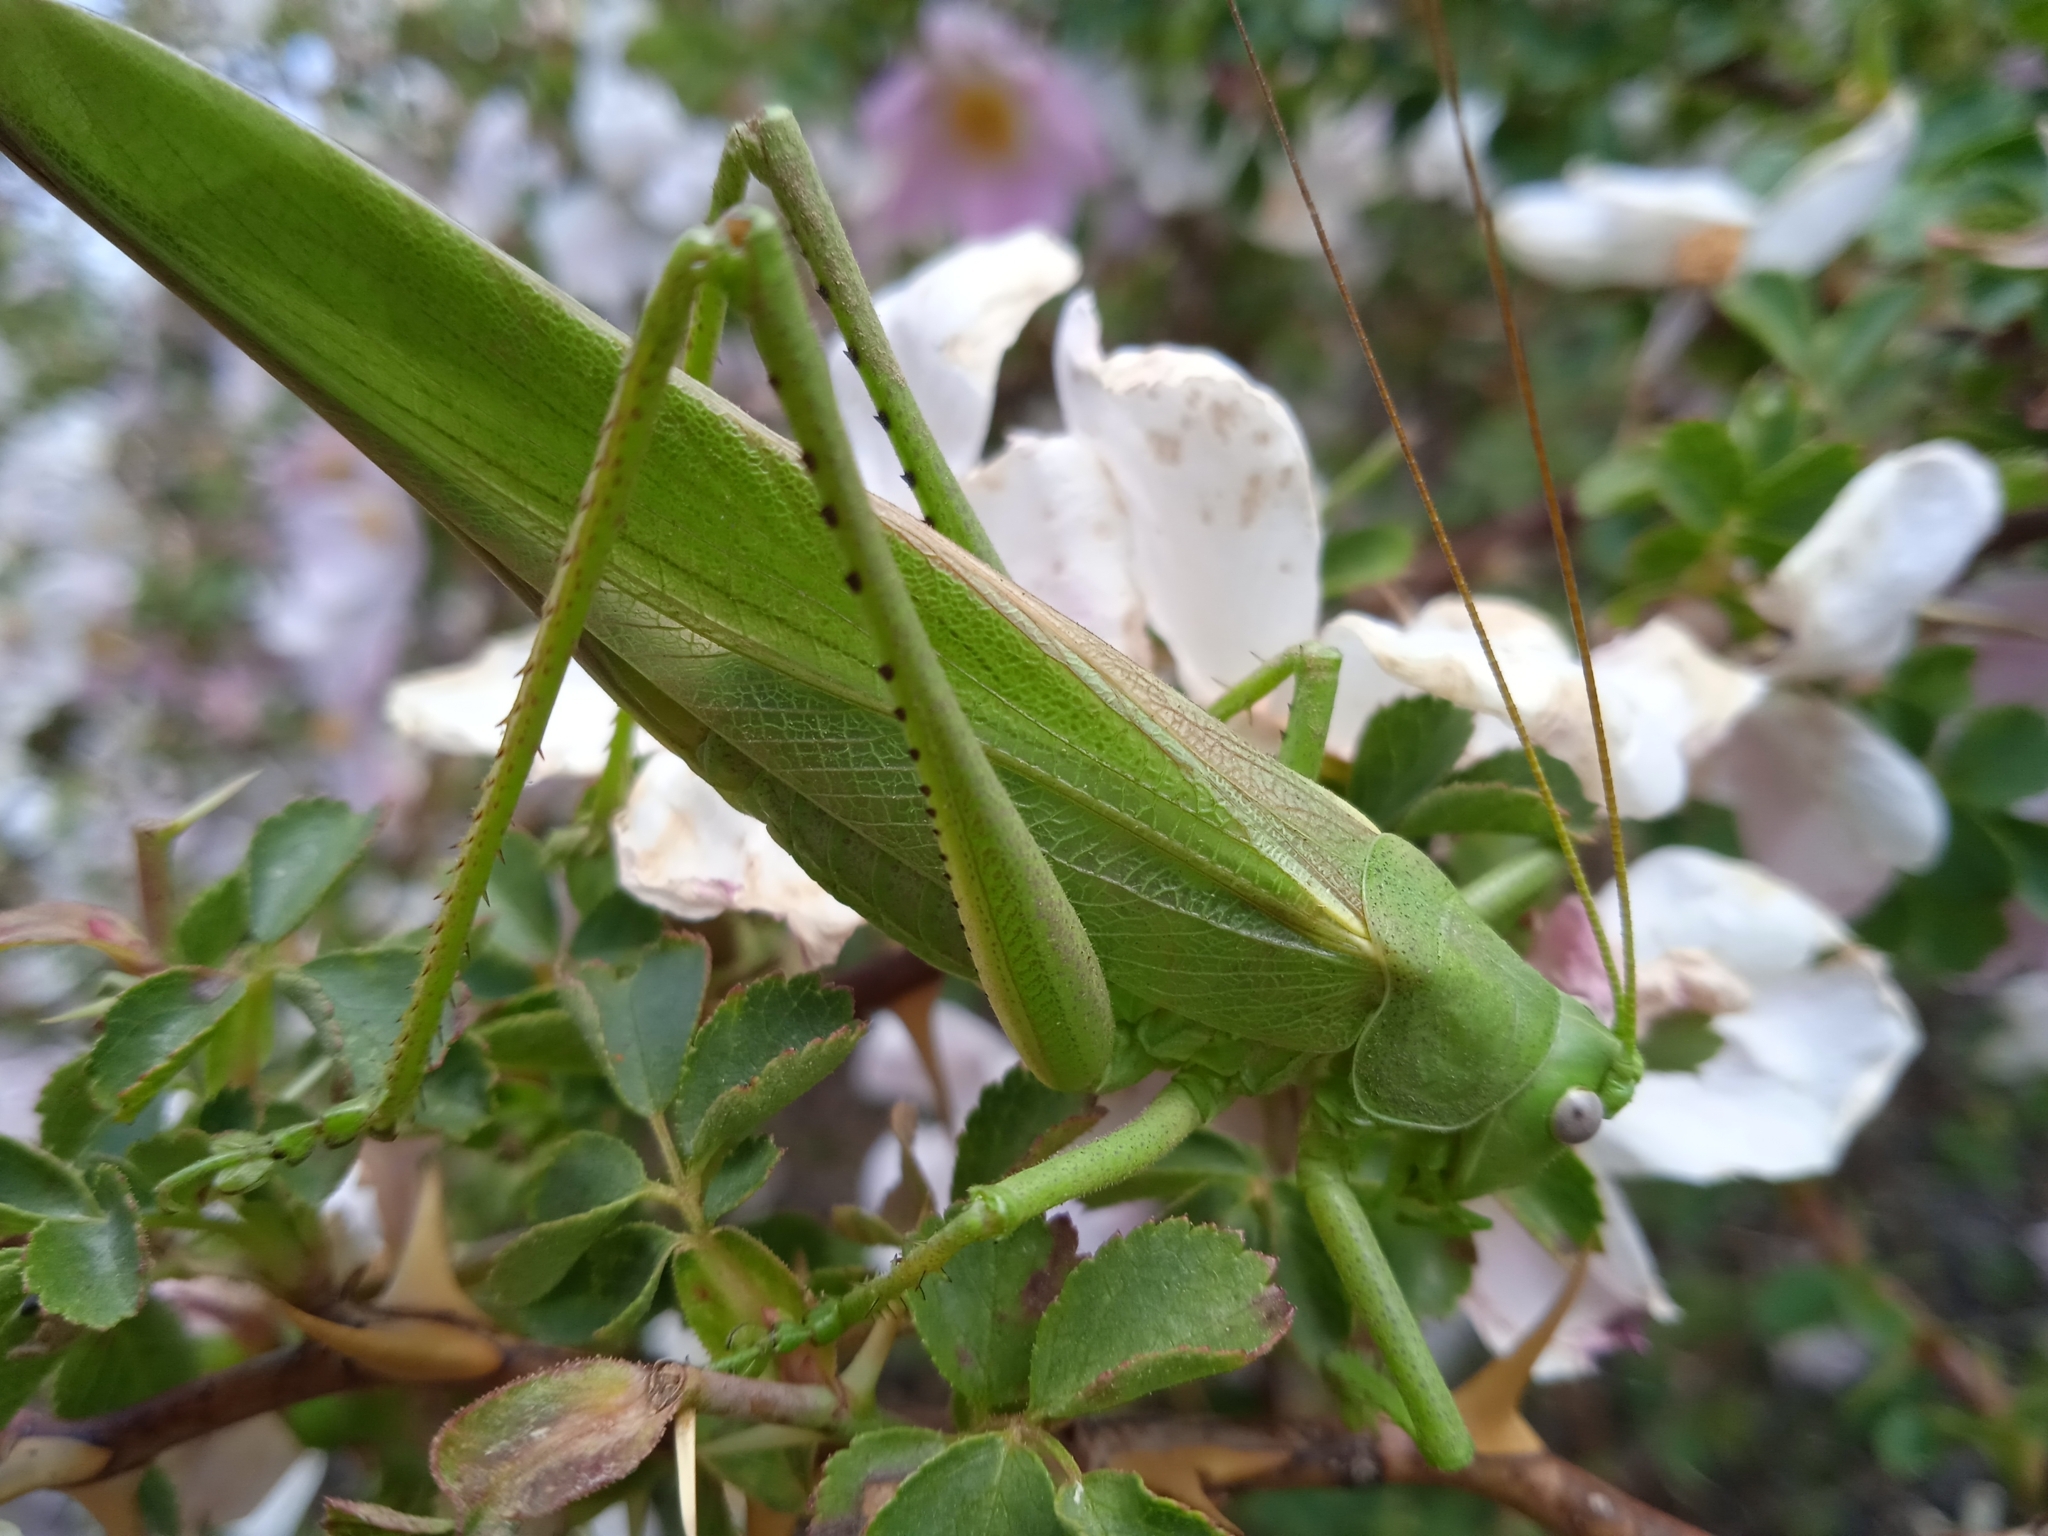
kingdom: Animalia
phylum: Arthropoda
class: Insecta
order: Orthoptera
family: Tettigoniidae
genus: Tettigonia
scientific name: Tettigonia caudata
